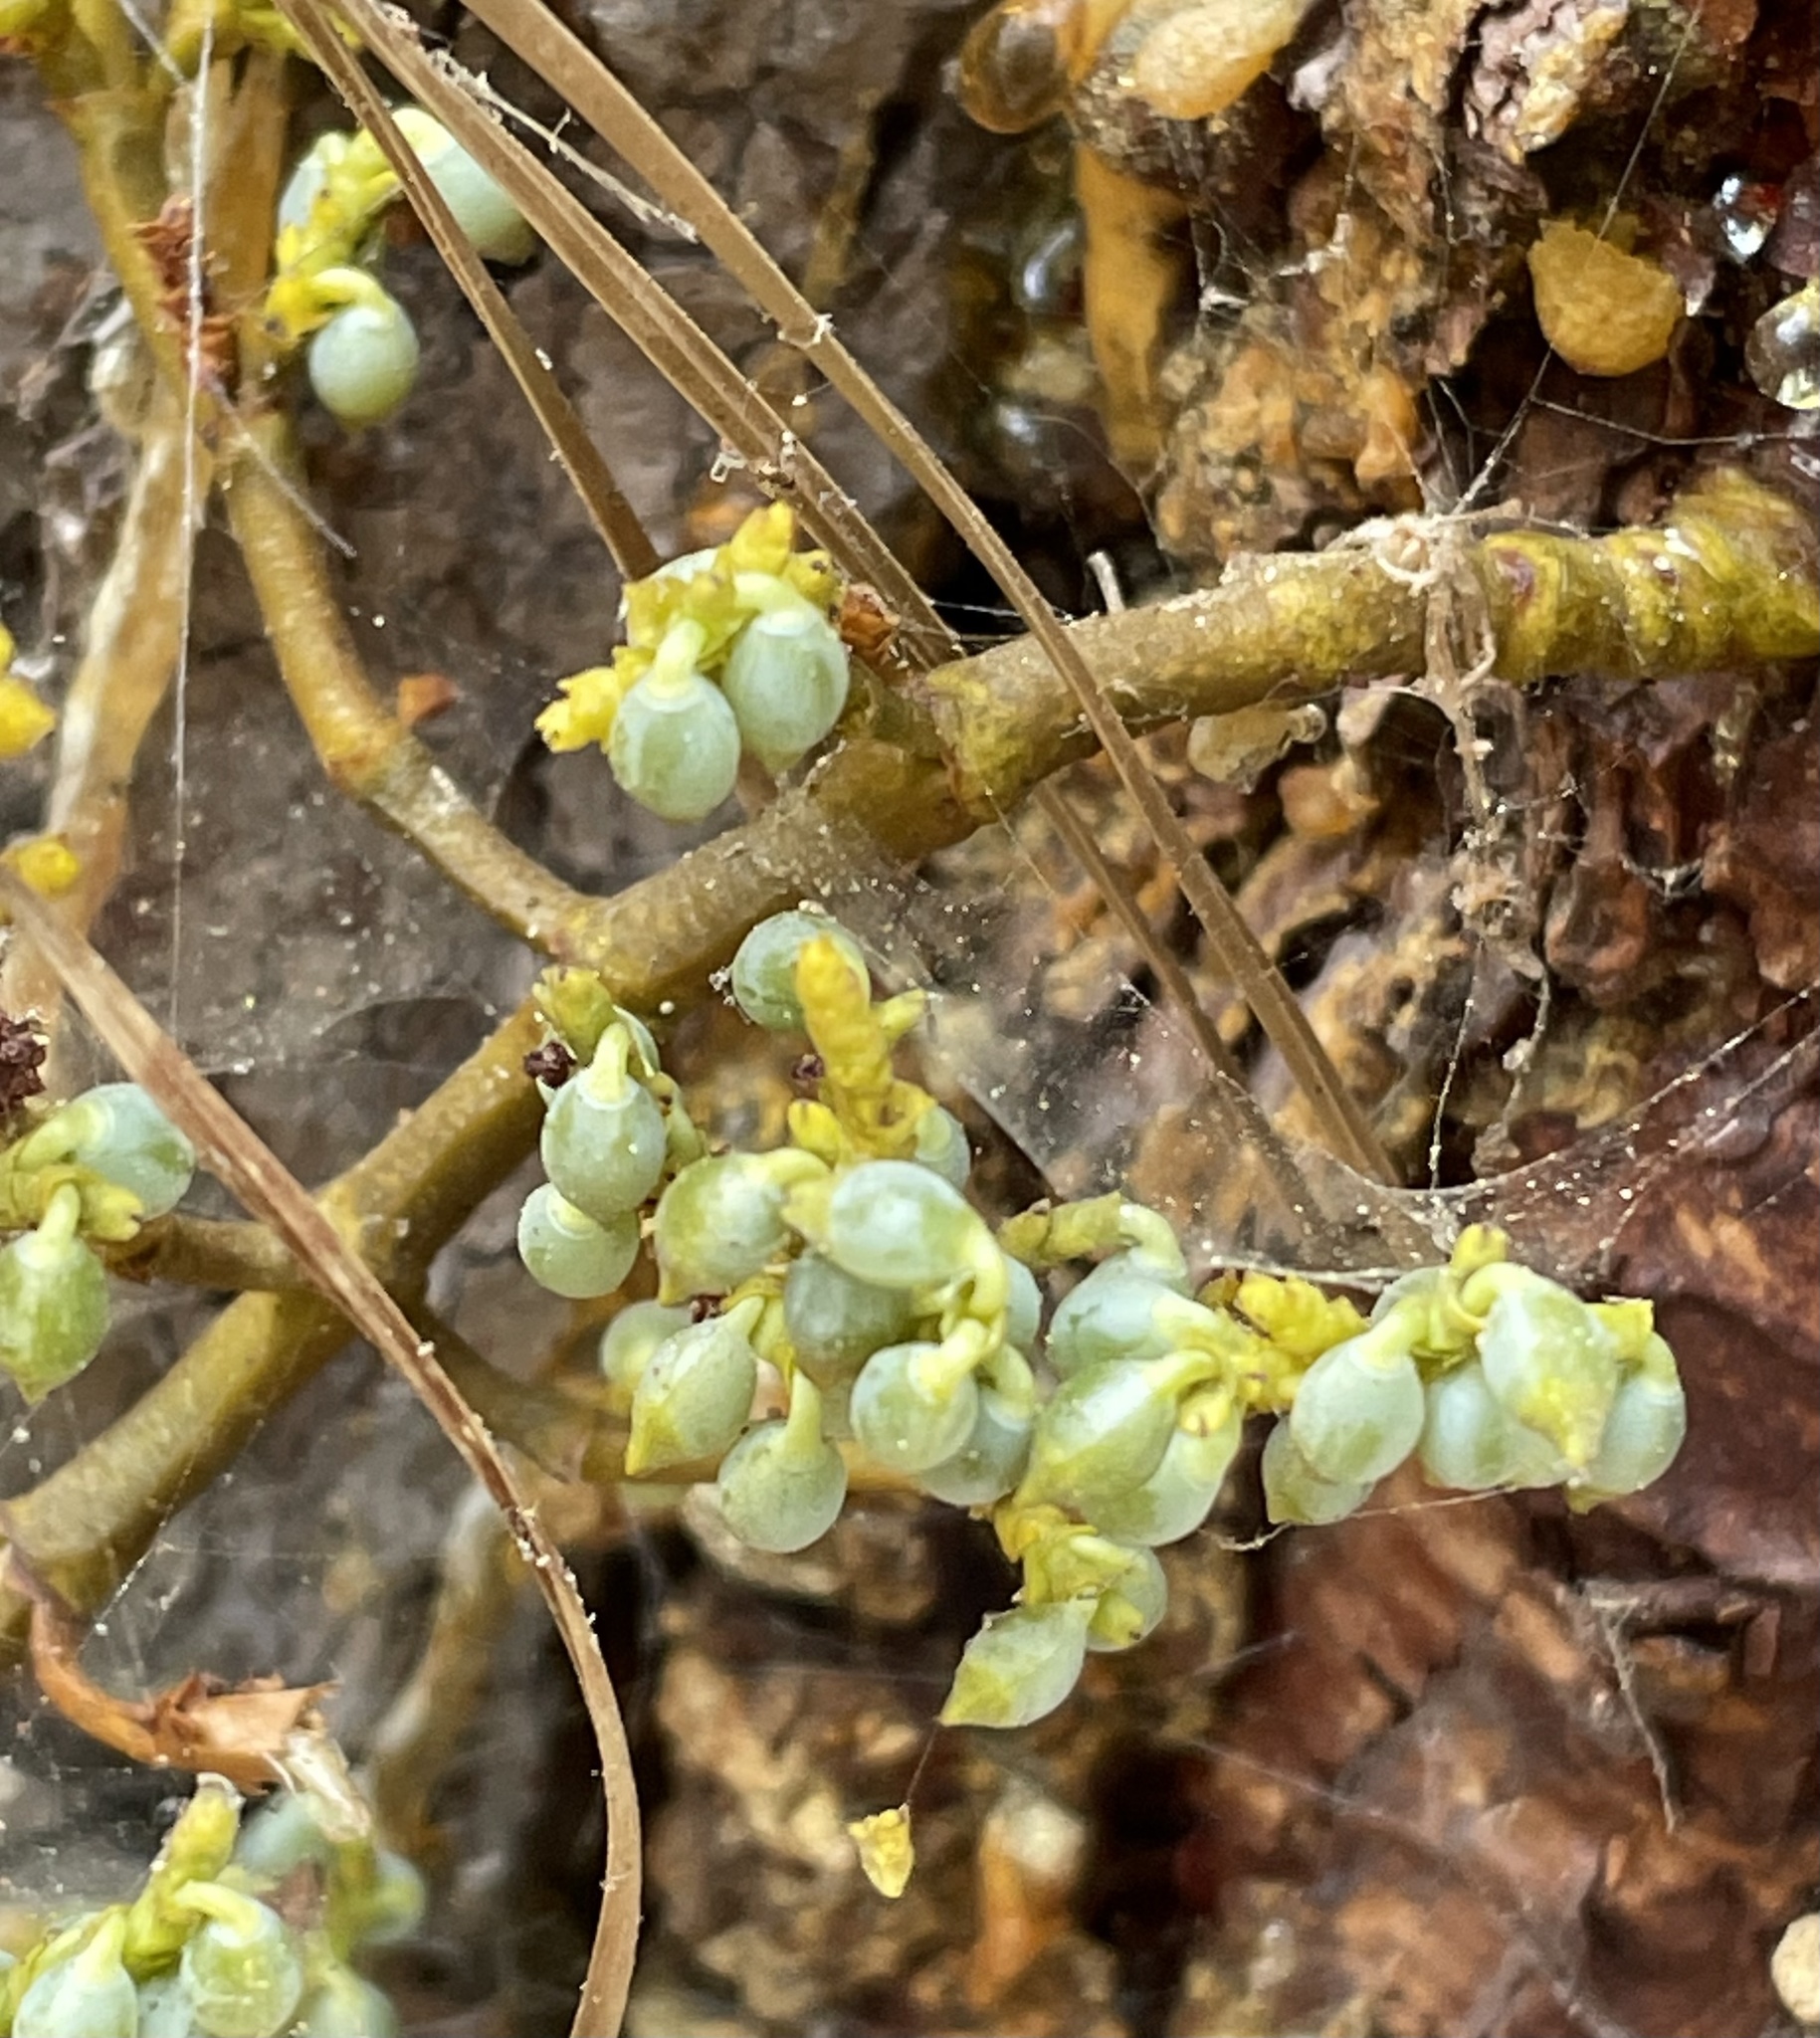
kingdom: Plantae
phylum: Tracheophyta
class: Magnoliopsida
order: Santalales
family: Viscaceae
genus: Arceuthobium
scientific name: Arceuthobium campylopodum
